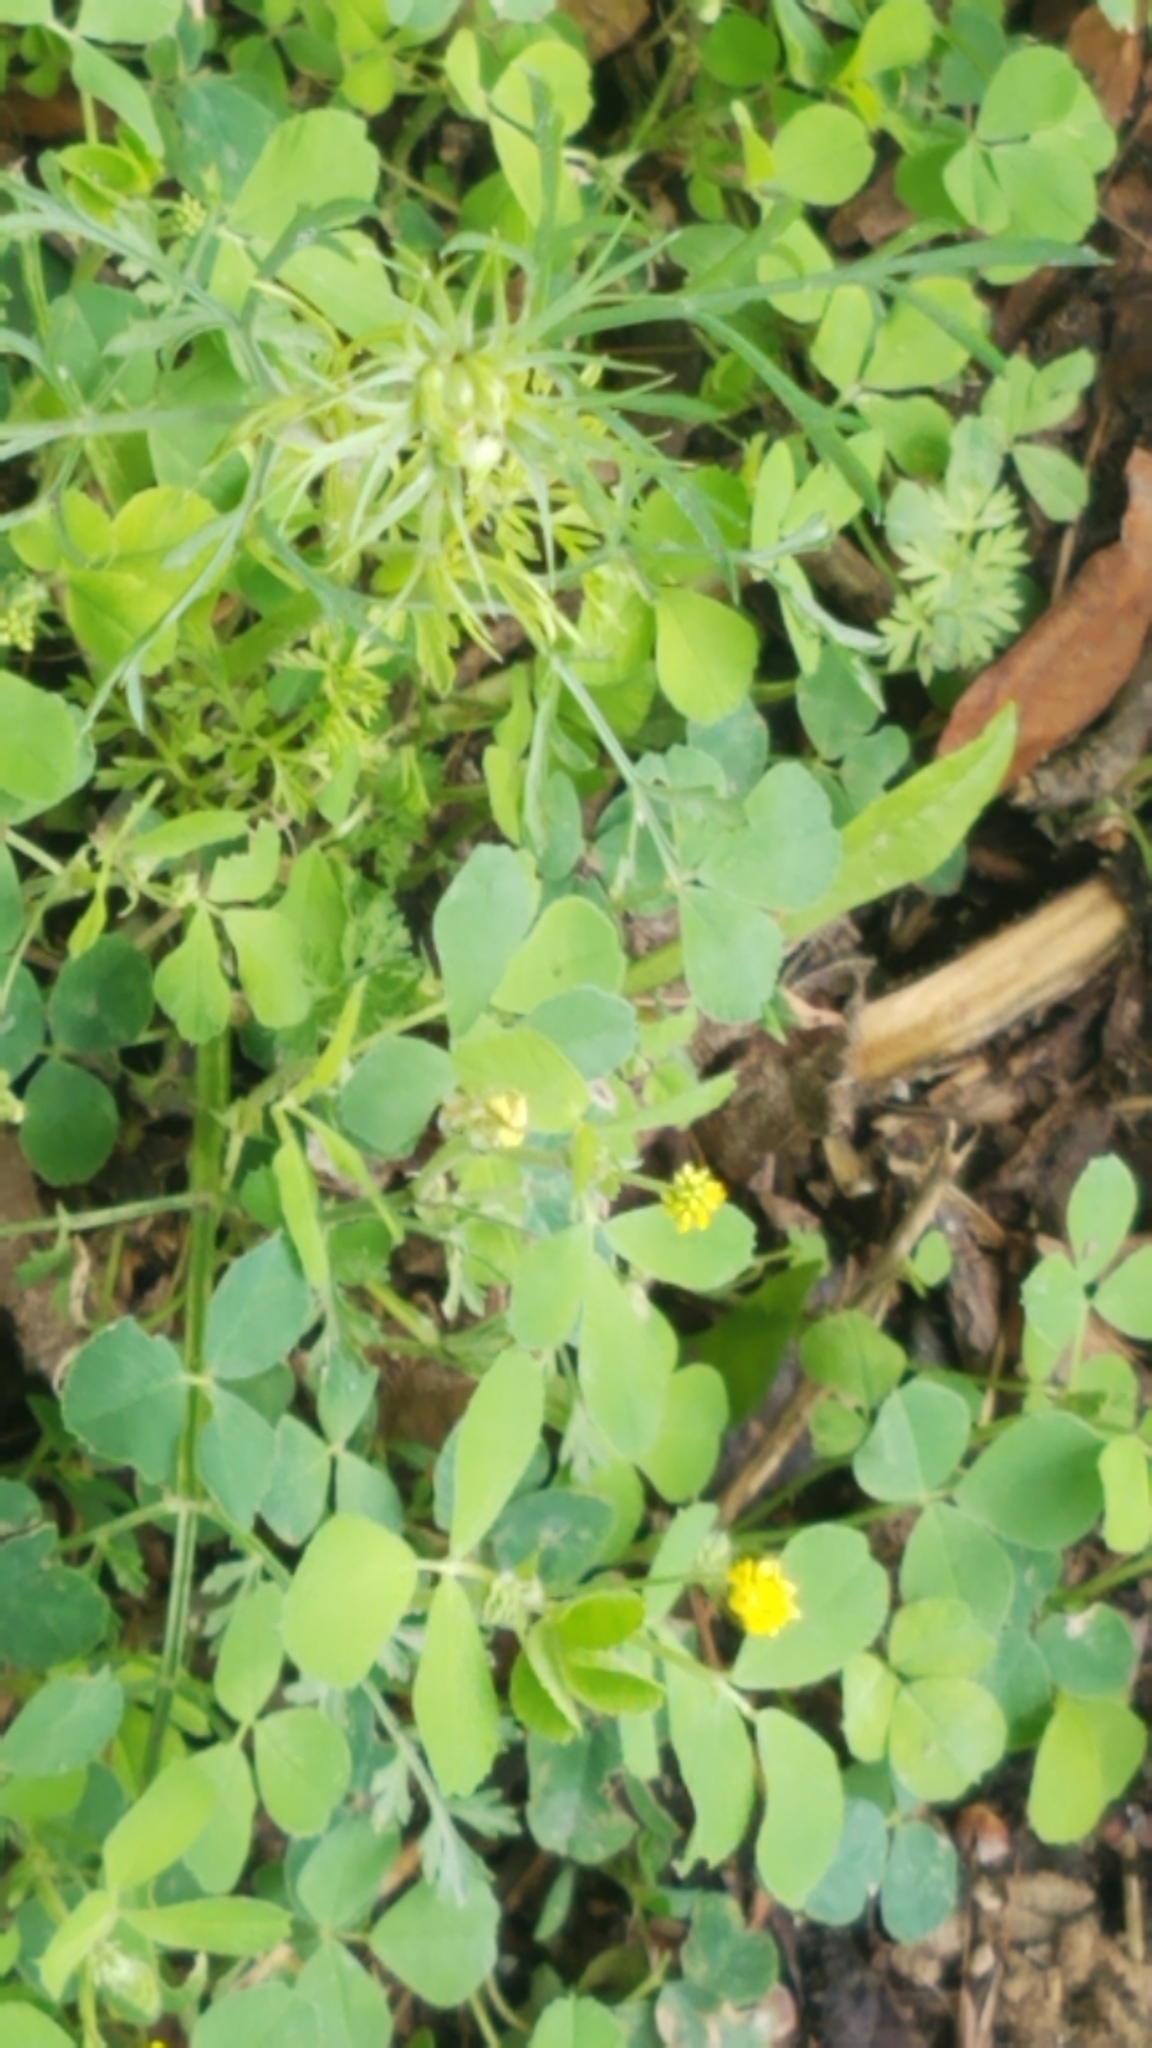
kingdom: Plantae
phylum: Tracheophyta
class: Magnoliopsida
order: Fabales
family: Fabaceae
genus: Medicago
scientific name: Medicago lupulina
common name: Black medick
